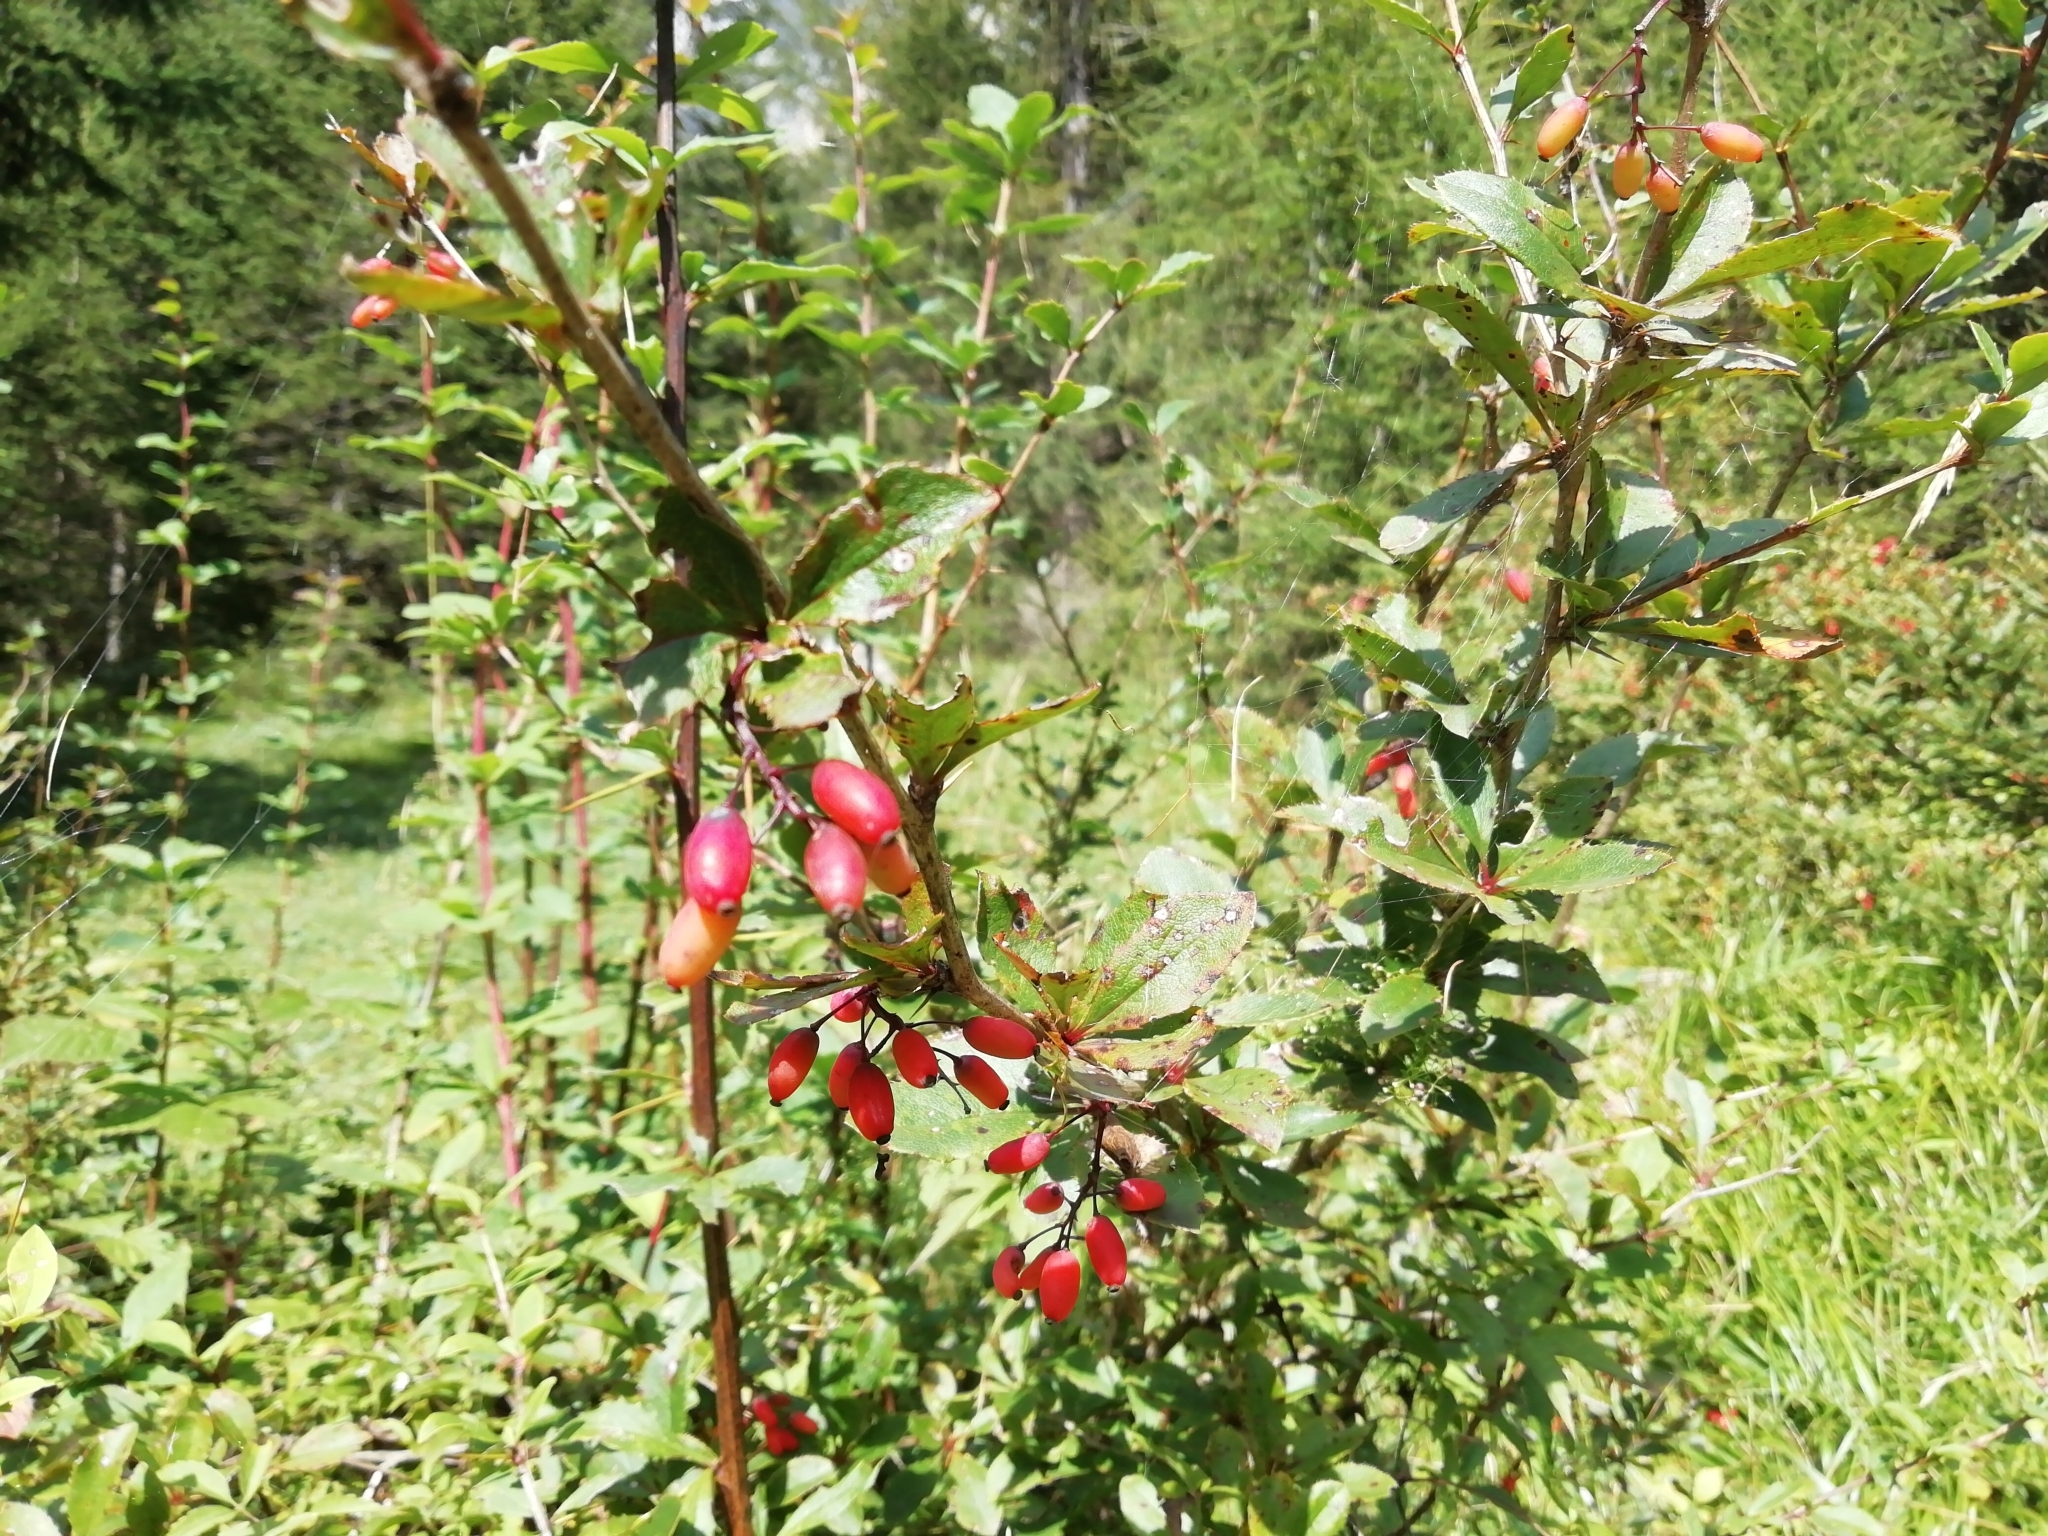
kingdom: Plantae
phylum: Tracheophyta
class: Magnoliopsida
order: Ranunculales
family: Berberidaceae
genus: Berberis
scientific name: Berberis vulgaris
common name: Barberry
